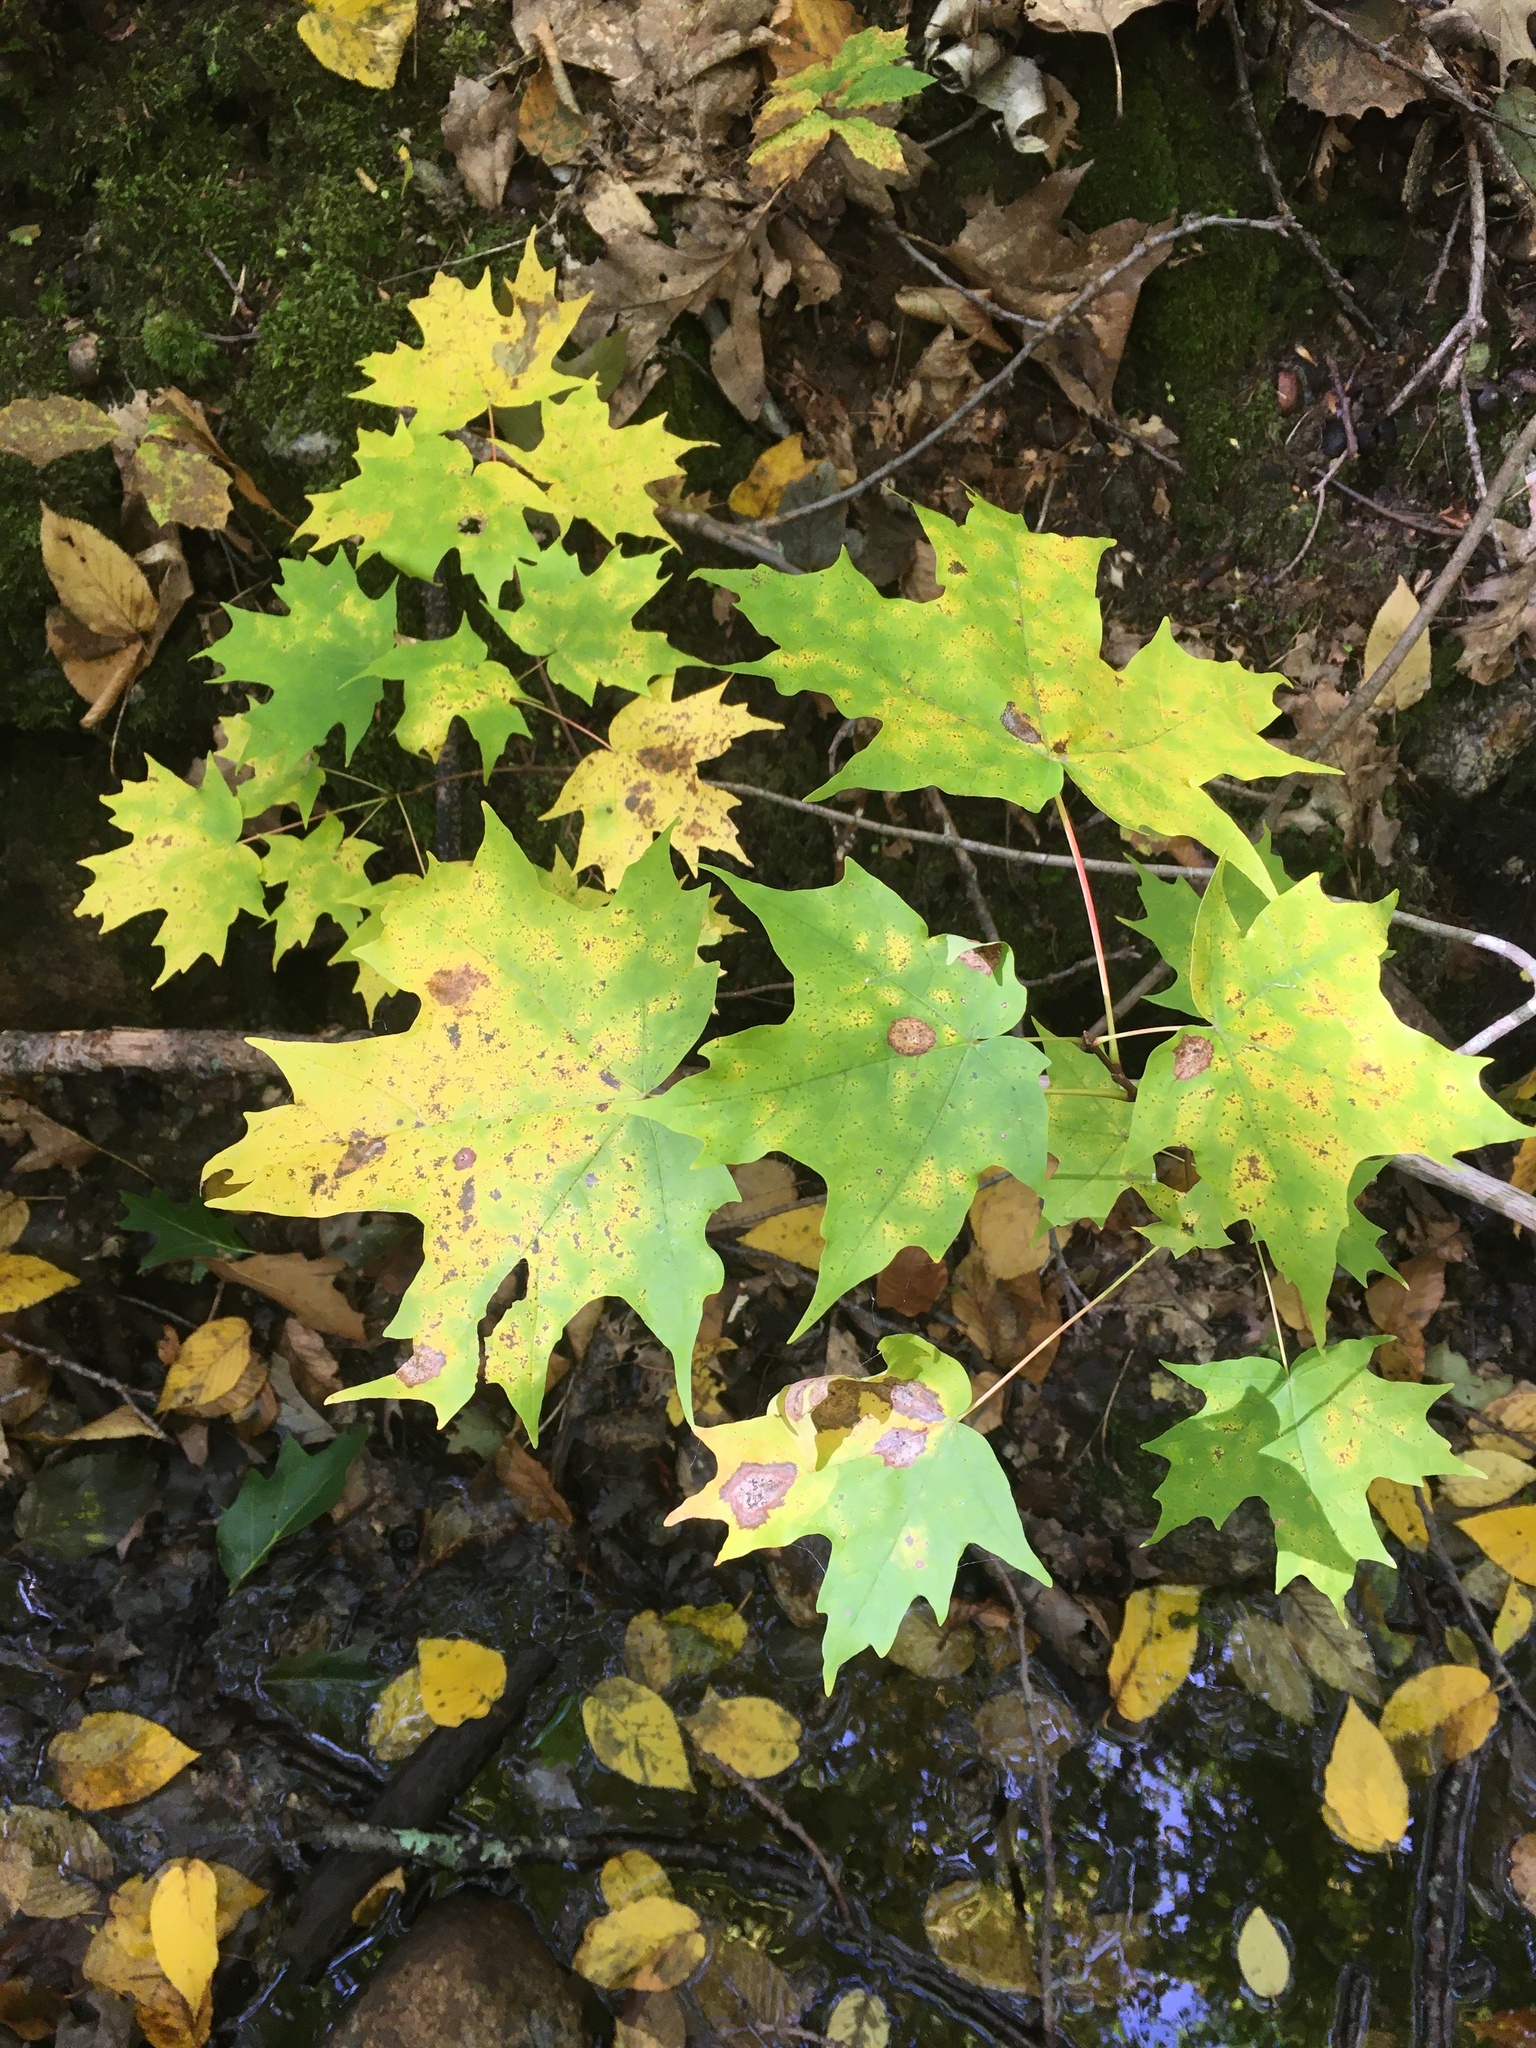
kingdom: Plantae
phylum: Tracheophyta
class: Magnoliopsida
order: Sapindales
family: Sapindaceae
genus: Acer
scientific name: Acer saccharum
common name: Sugar maple
